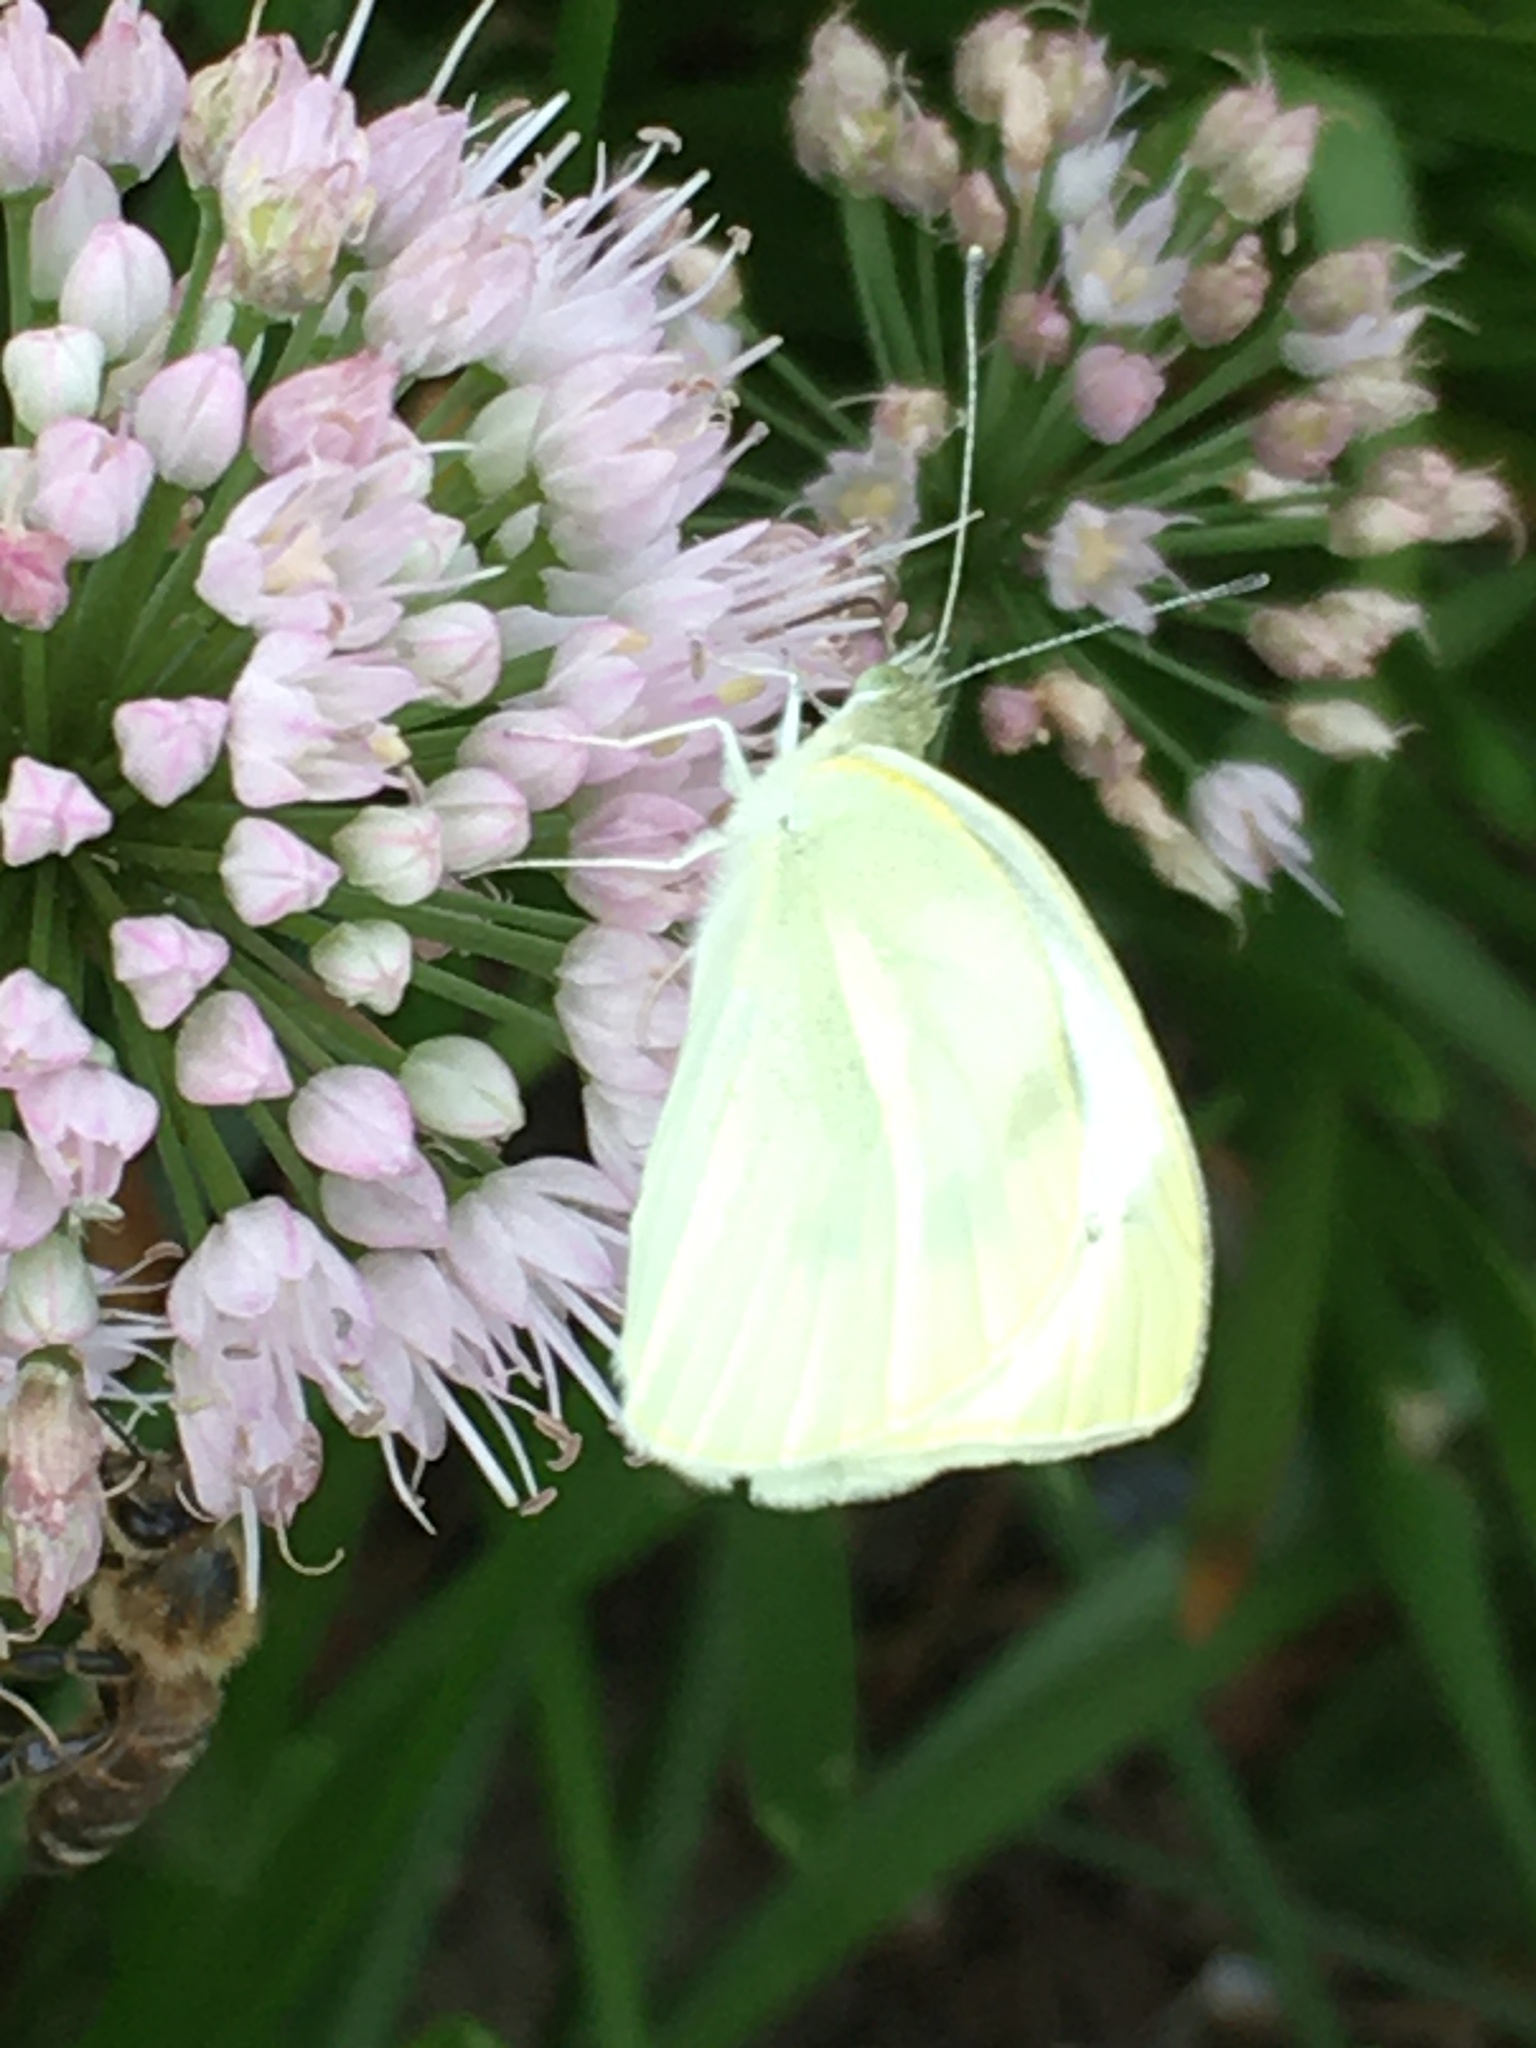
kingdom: Animalia
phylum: Arthropoda
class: Insecta
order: Lepidoptera
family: Pieridae
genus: Pieris
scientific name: Pieris rapae
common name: Small white
